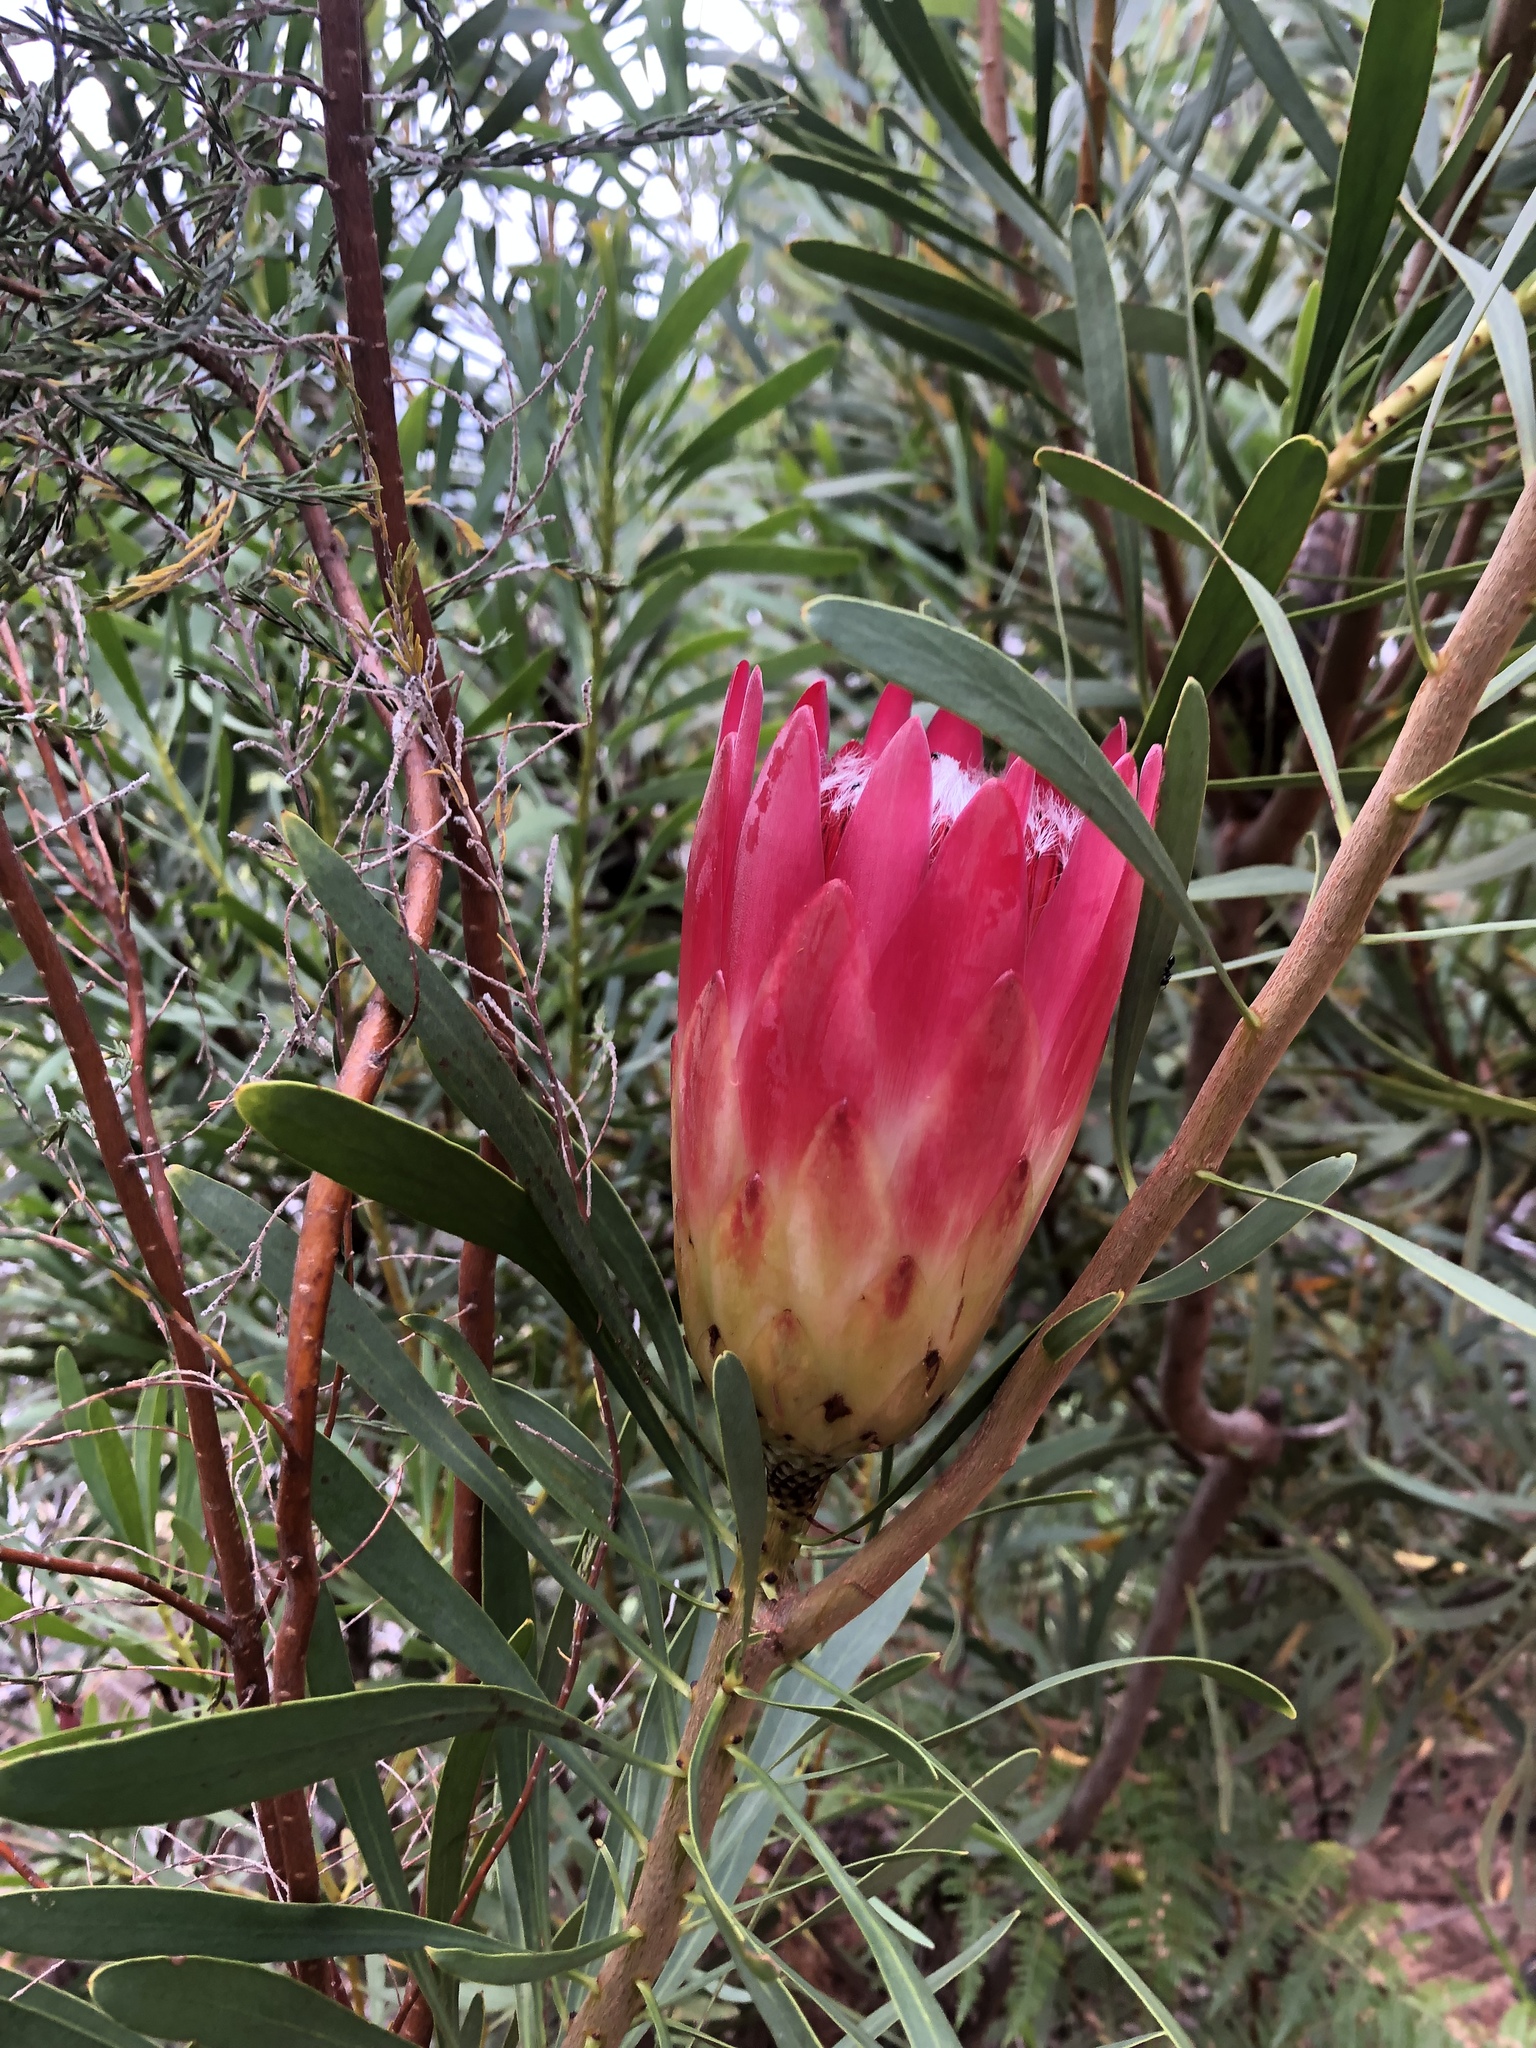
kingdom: Plantae
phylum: Tracheophyta
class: Magnoliopsida
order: Proteales
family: Proteaceae
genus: Protea
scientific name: Protea repens
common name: Sugarbush
